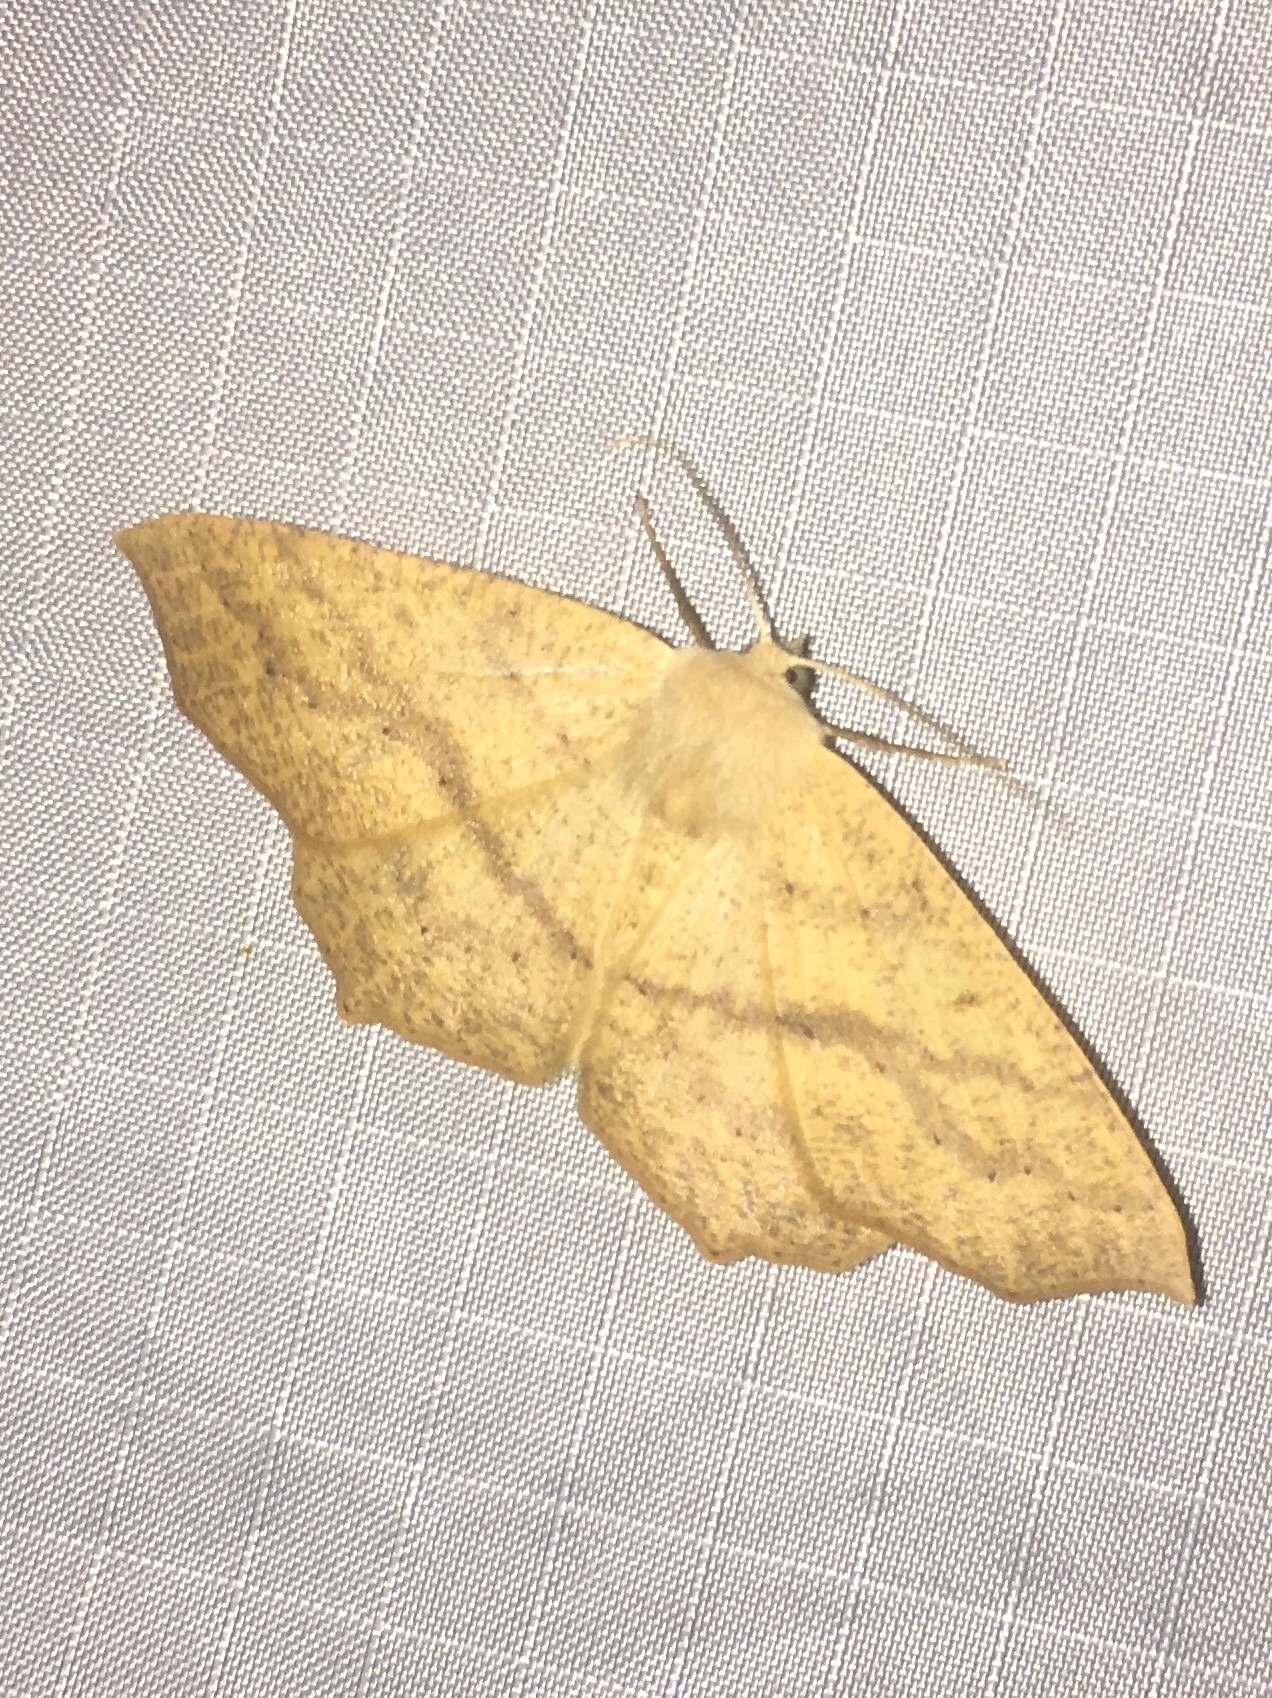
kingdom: Animalia
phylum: Arthropoda
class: Insecta
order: Lepidoptera
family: Geometridae
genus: Sabulodes
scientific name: Sabulodes aegrotata
